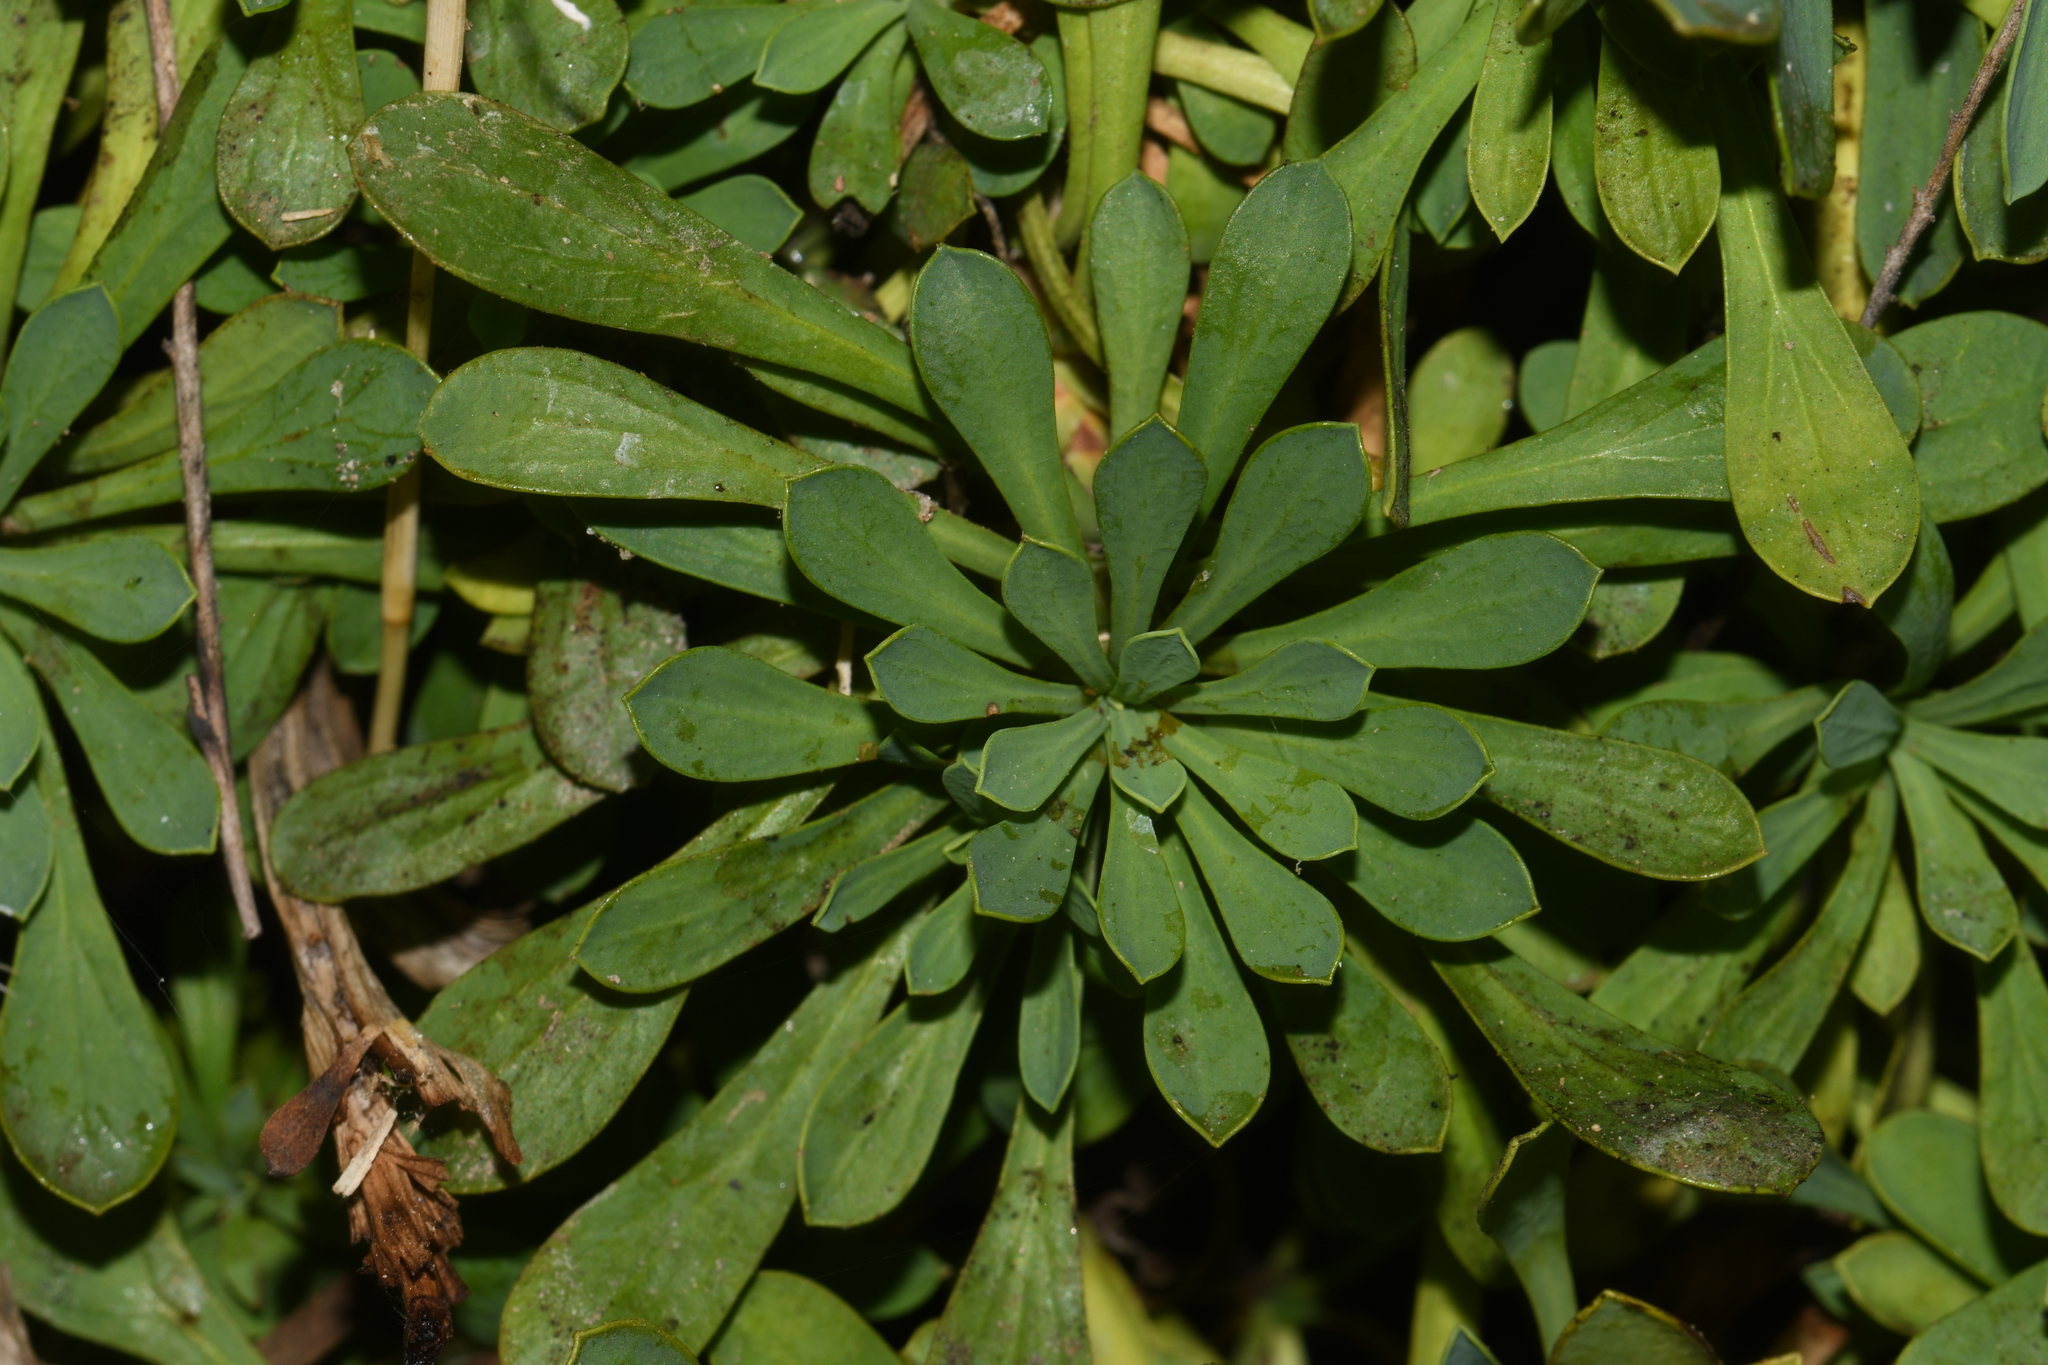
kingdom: Plantae
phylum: Tracheophyta
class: Magnoliopsida
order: Rosales
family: Rosaceae
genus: Petrophytum
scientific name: Petrophytum caespitosum
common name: Mat rockspirea
